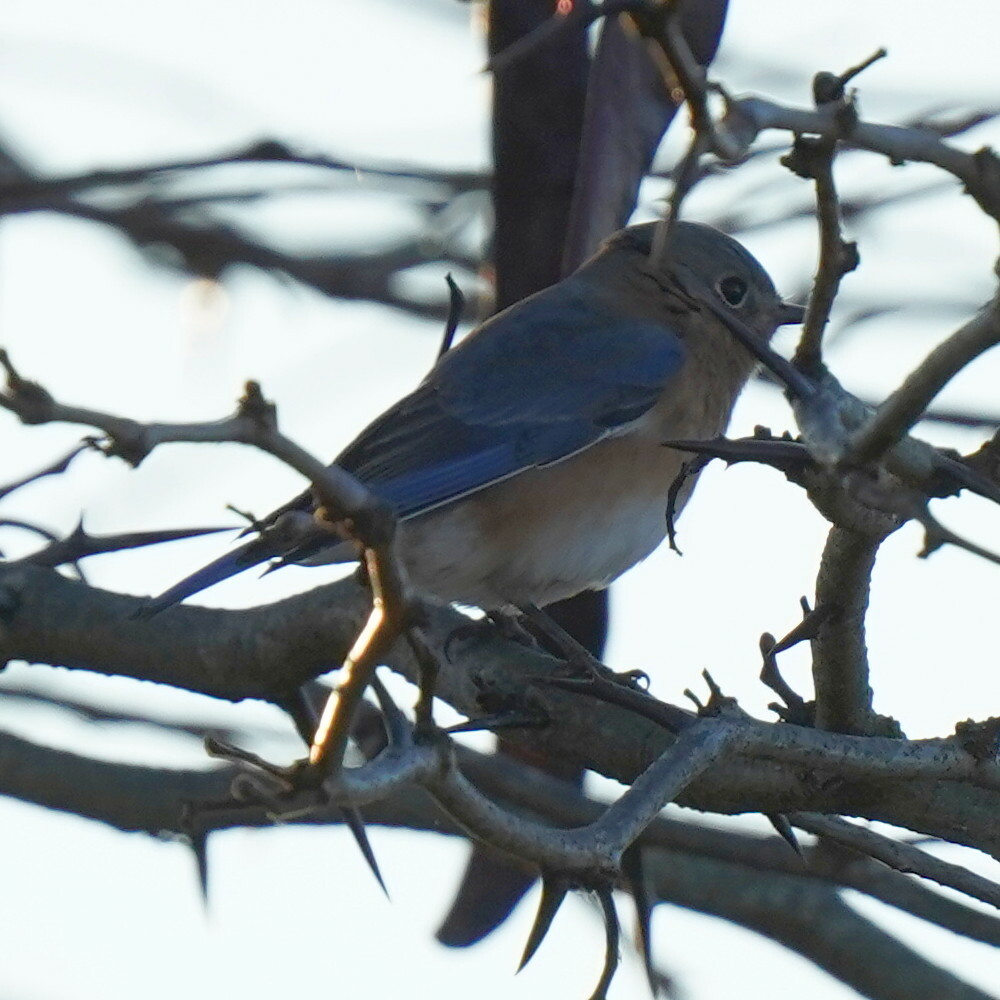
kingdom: Animalia
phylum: Chordata
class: Aves
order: Passeriformes
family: Turdidae
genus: Sialia
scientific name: Sialia sialis
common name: Eastern bluebird
